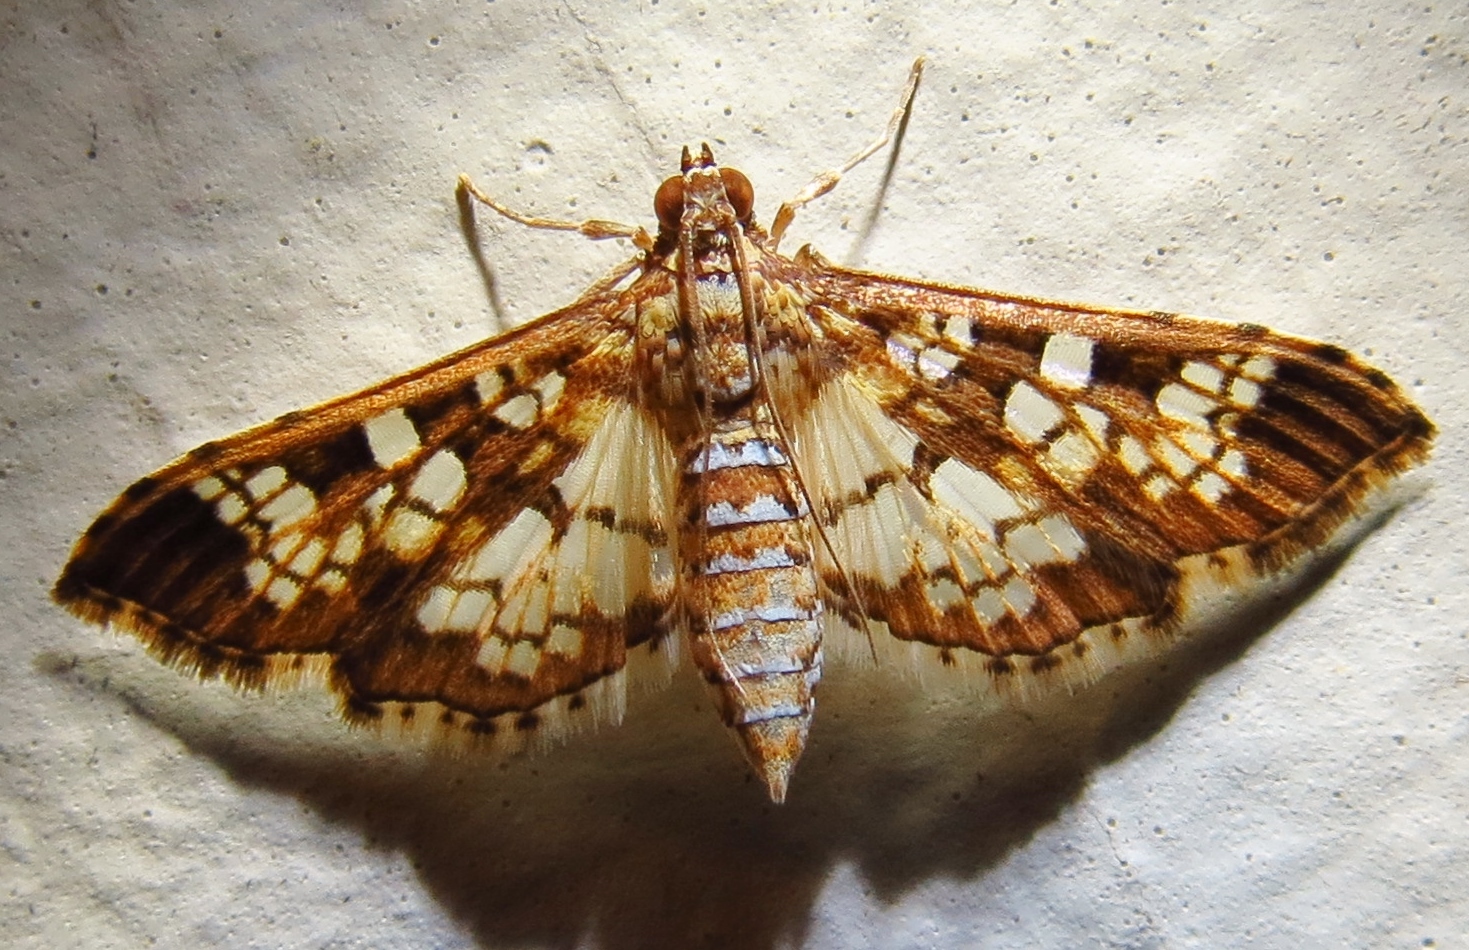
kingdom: Animalia
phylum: Arthropoda
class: Insecta
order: Lepidoptera
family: Crambidae
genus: Samea
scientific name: Samea ecclesialis
